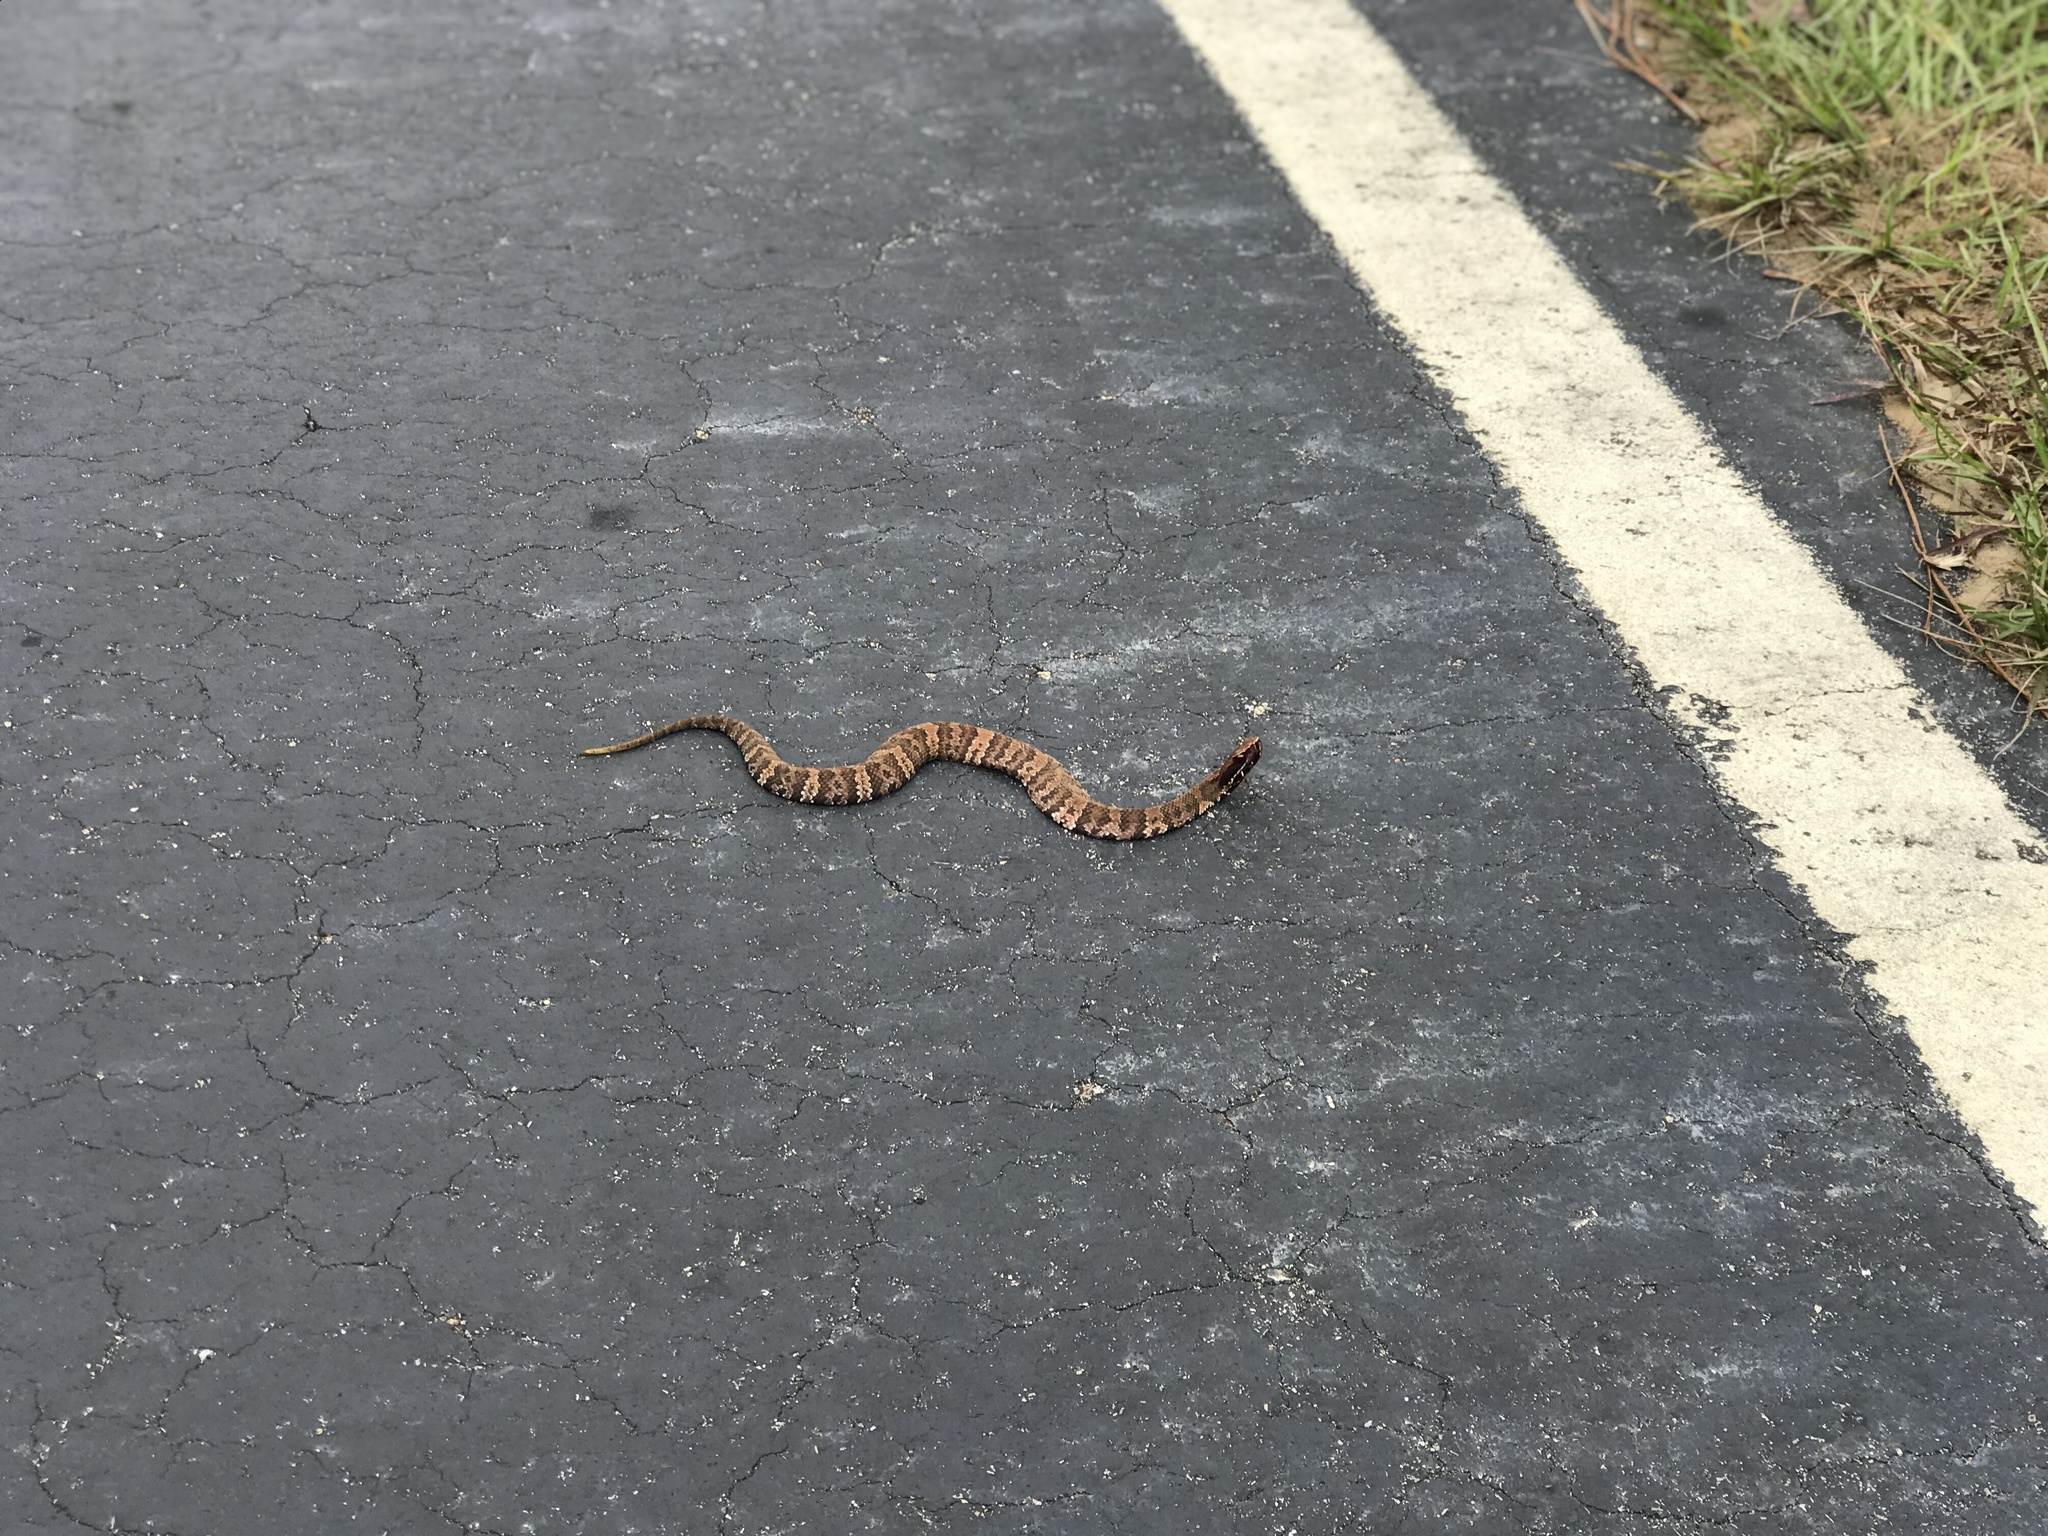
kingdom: Animalia
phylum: Chordata
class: Squamata
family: Viperidae
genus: Agkistrodon
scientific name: Agkistrodon piscivorus
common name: Cottonmouth
